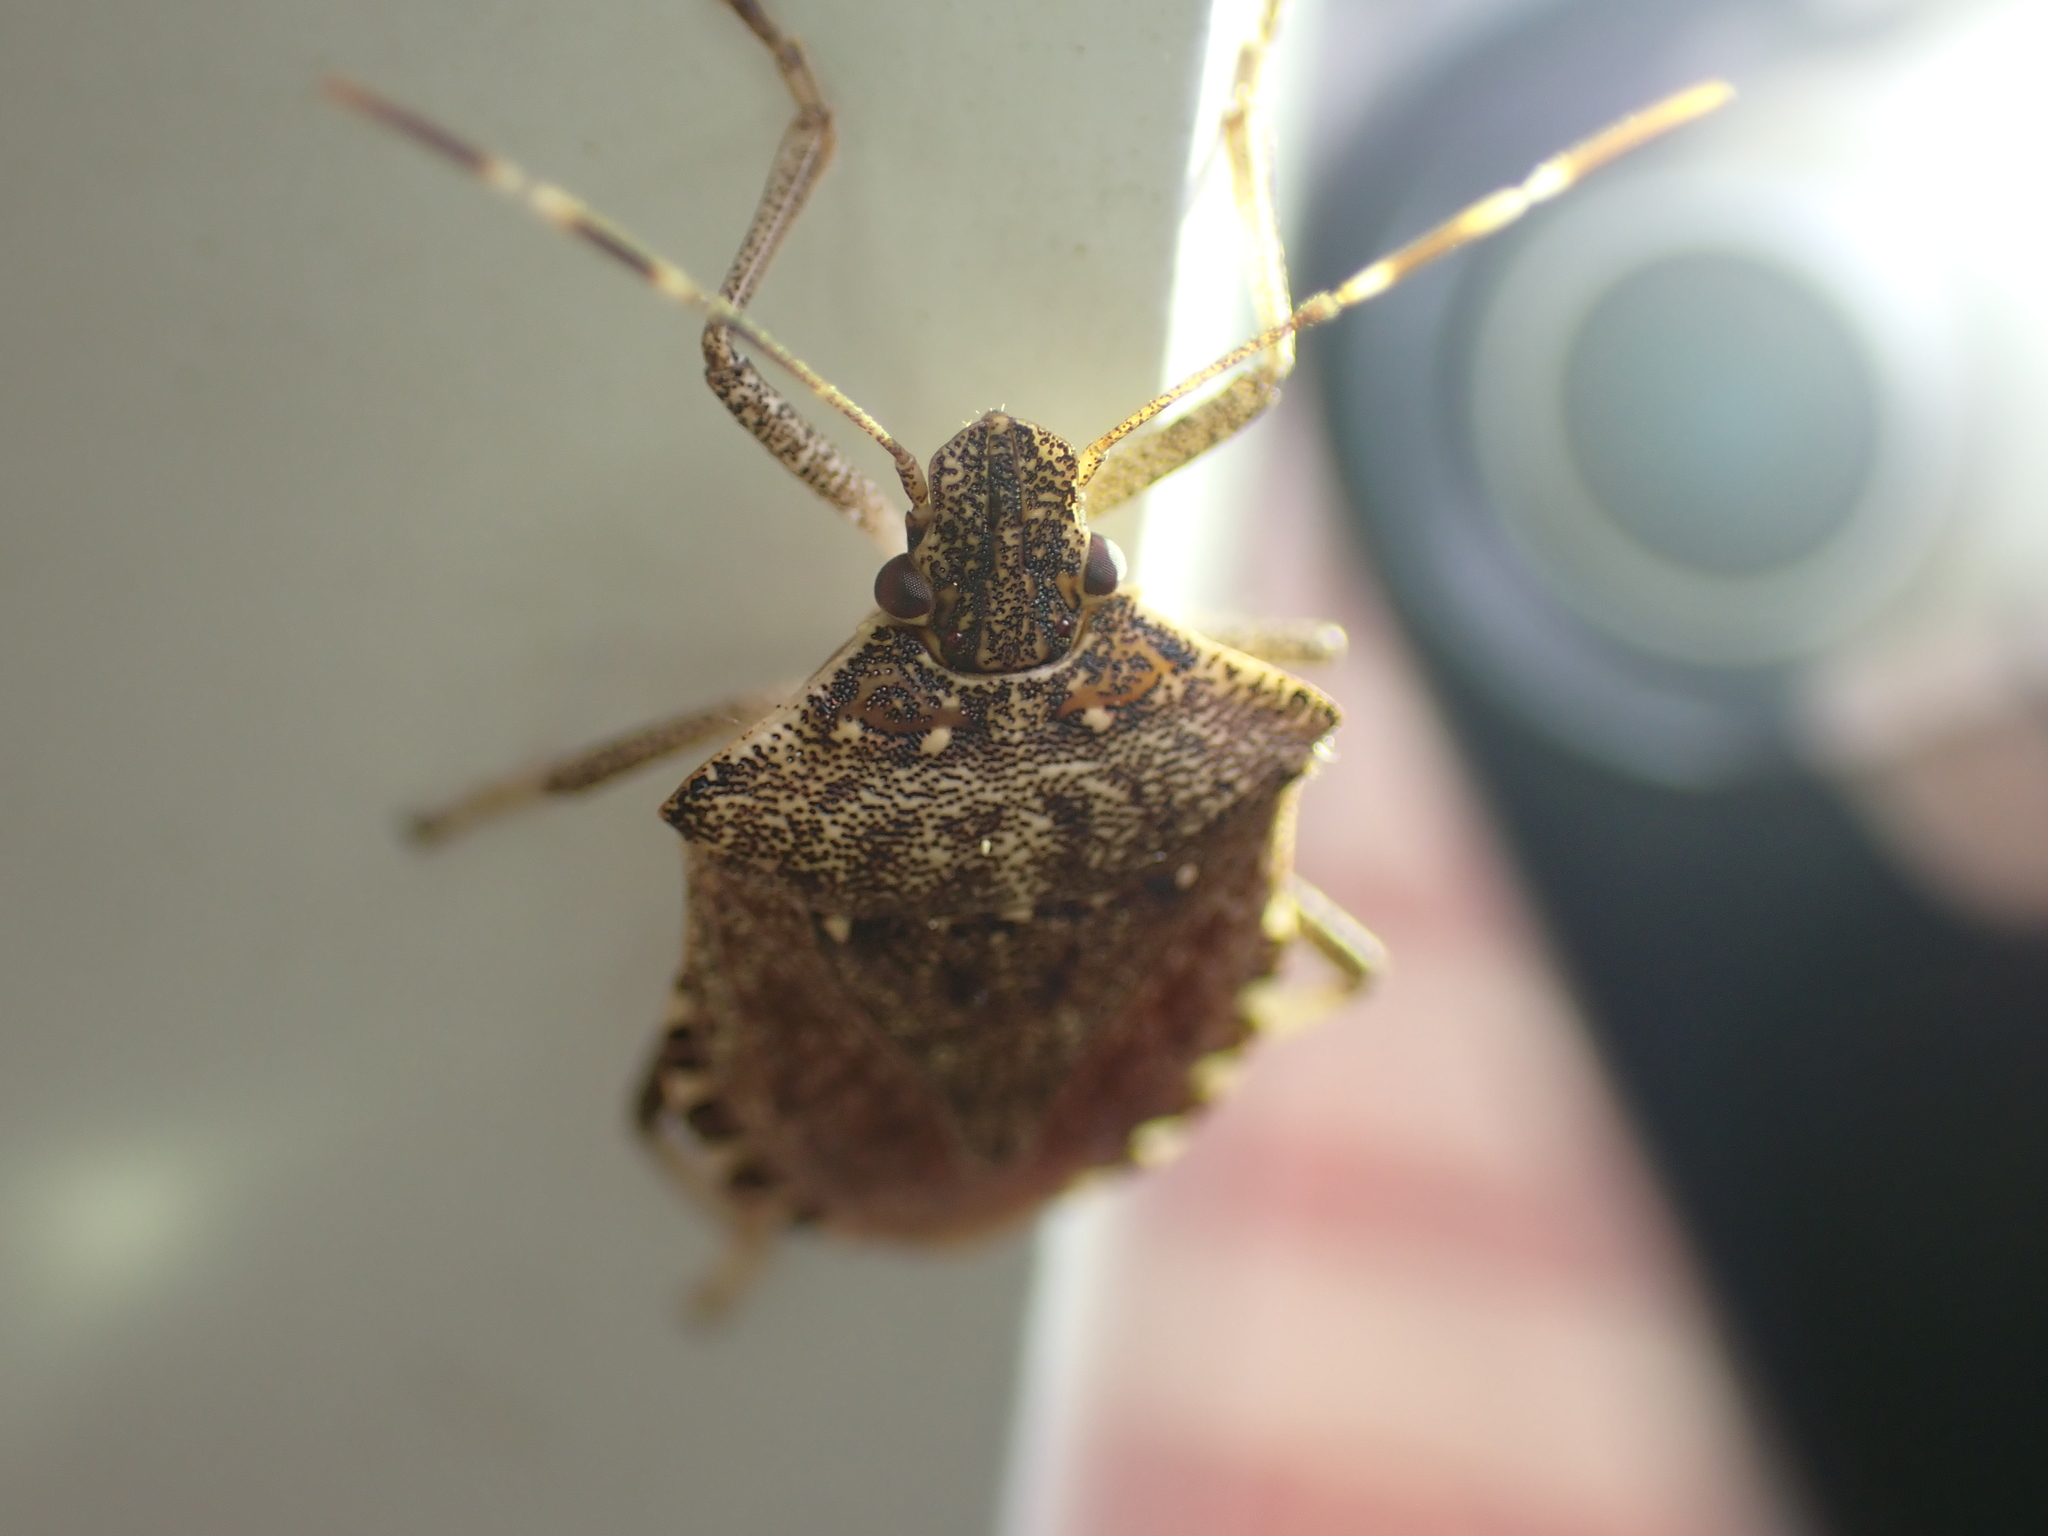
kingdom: Animalia
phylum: Arthropoda
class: Insecta
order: Hemiptera
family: Pentatomidae
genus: Halyomorpha
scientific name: Halyomorpha halys
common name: Brown marmorated stink bug
